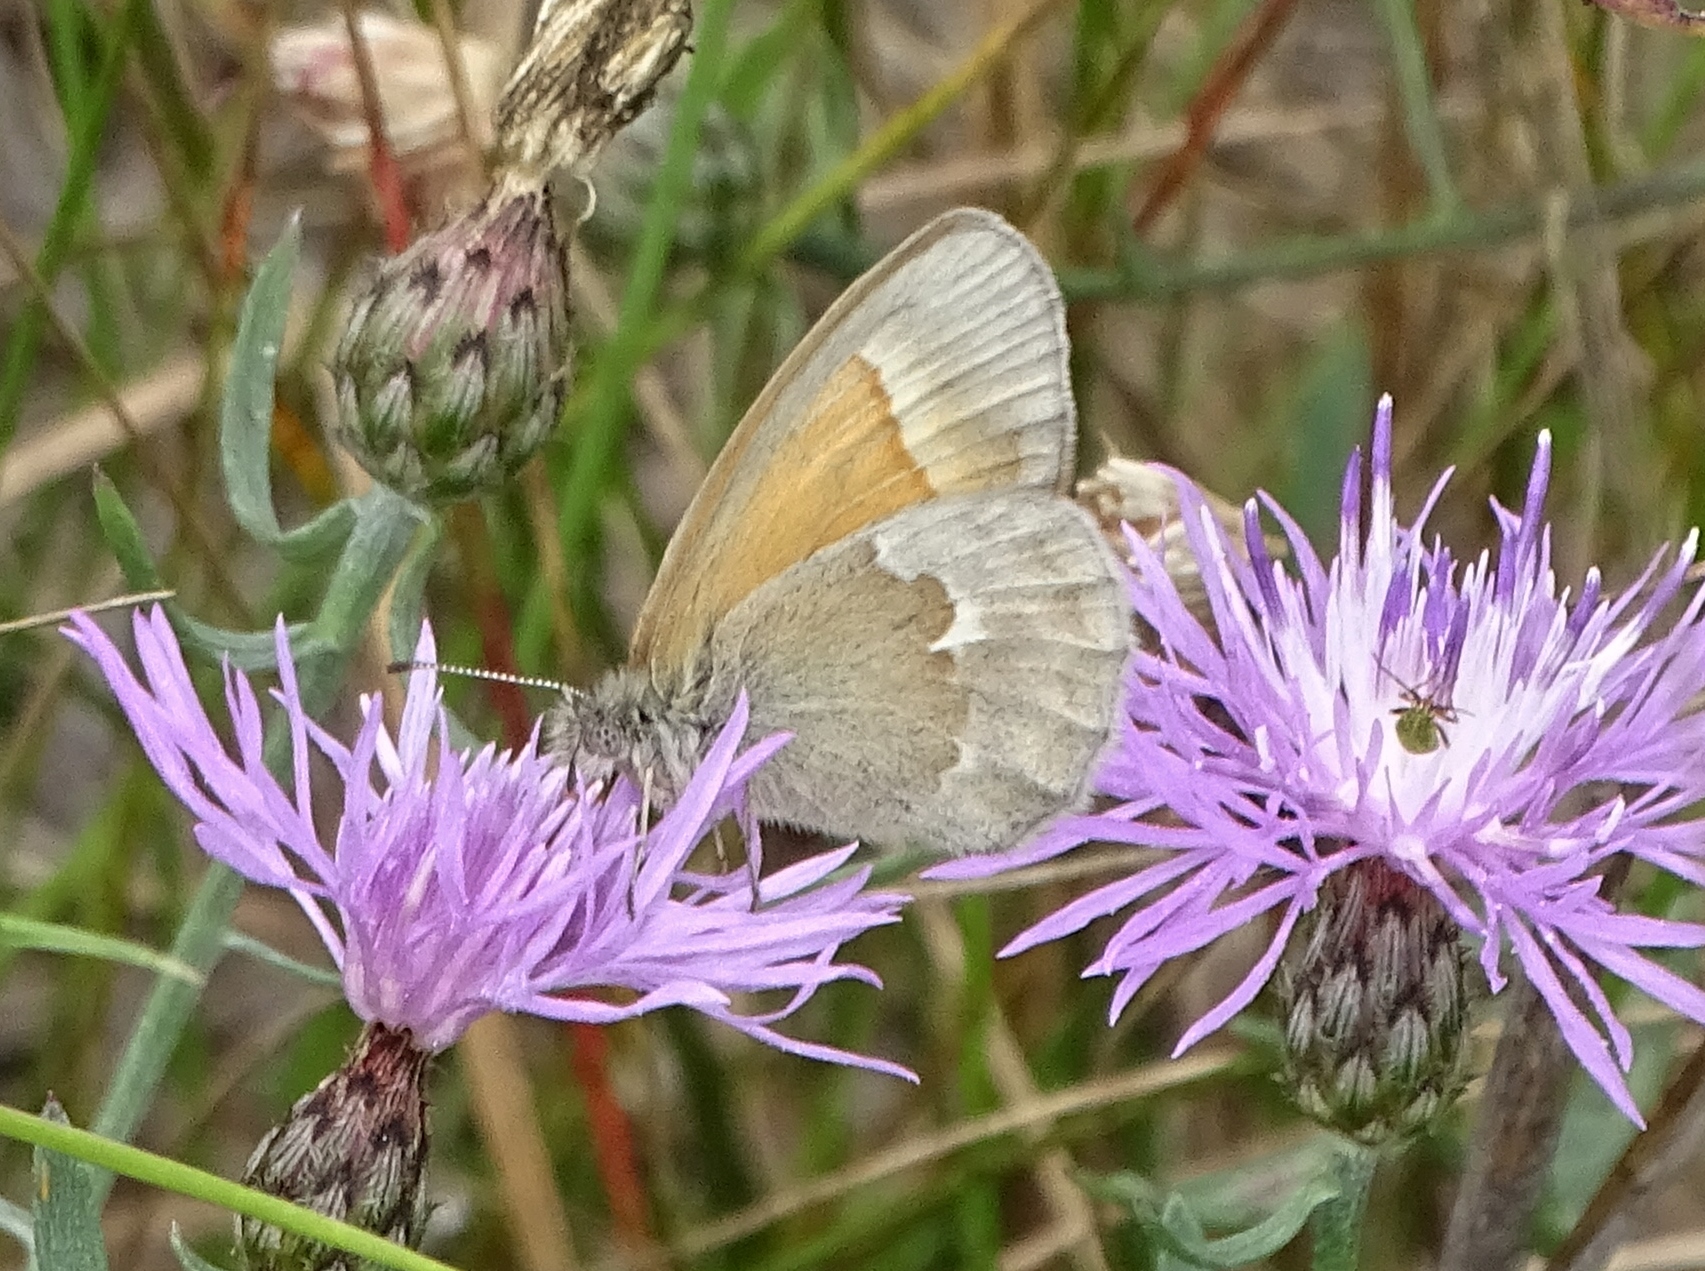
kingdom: Animalia
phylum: Arthropoda
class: Insecta
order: Lepidoptera
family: Nymphalidae
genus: Coenonympha
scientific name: Coenonympha california
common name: Common ringlet
